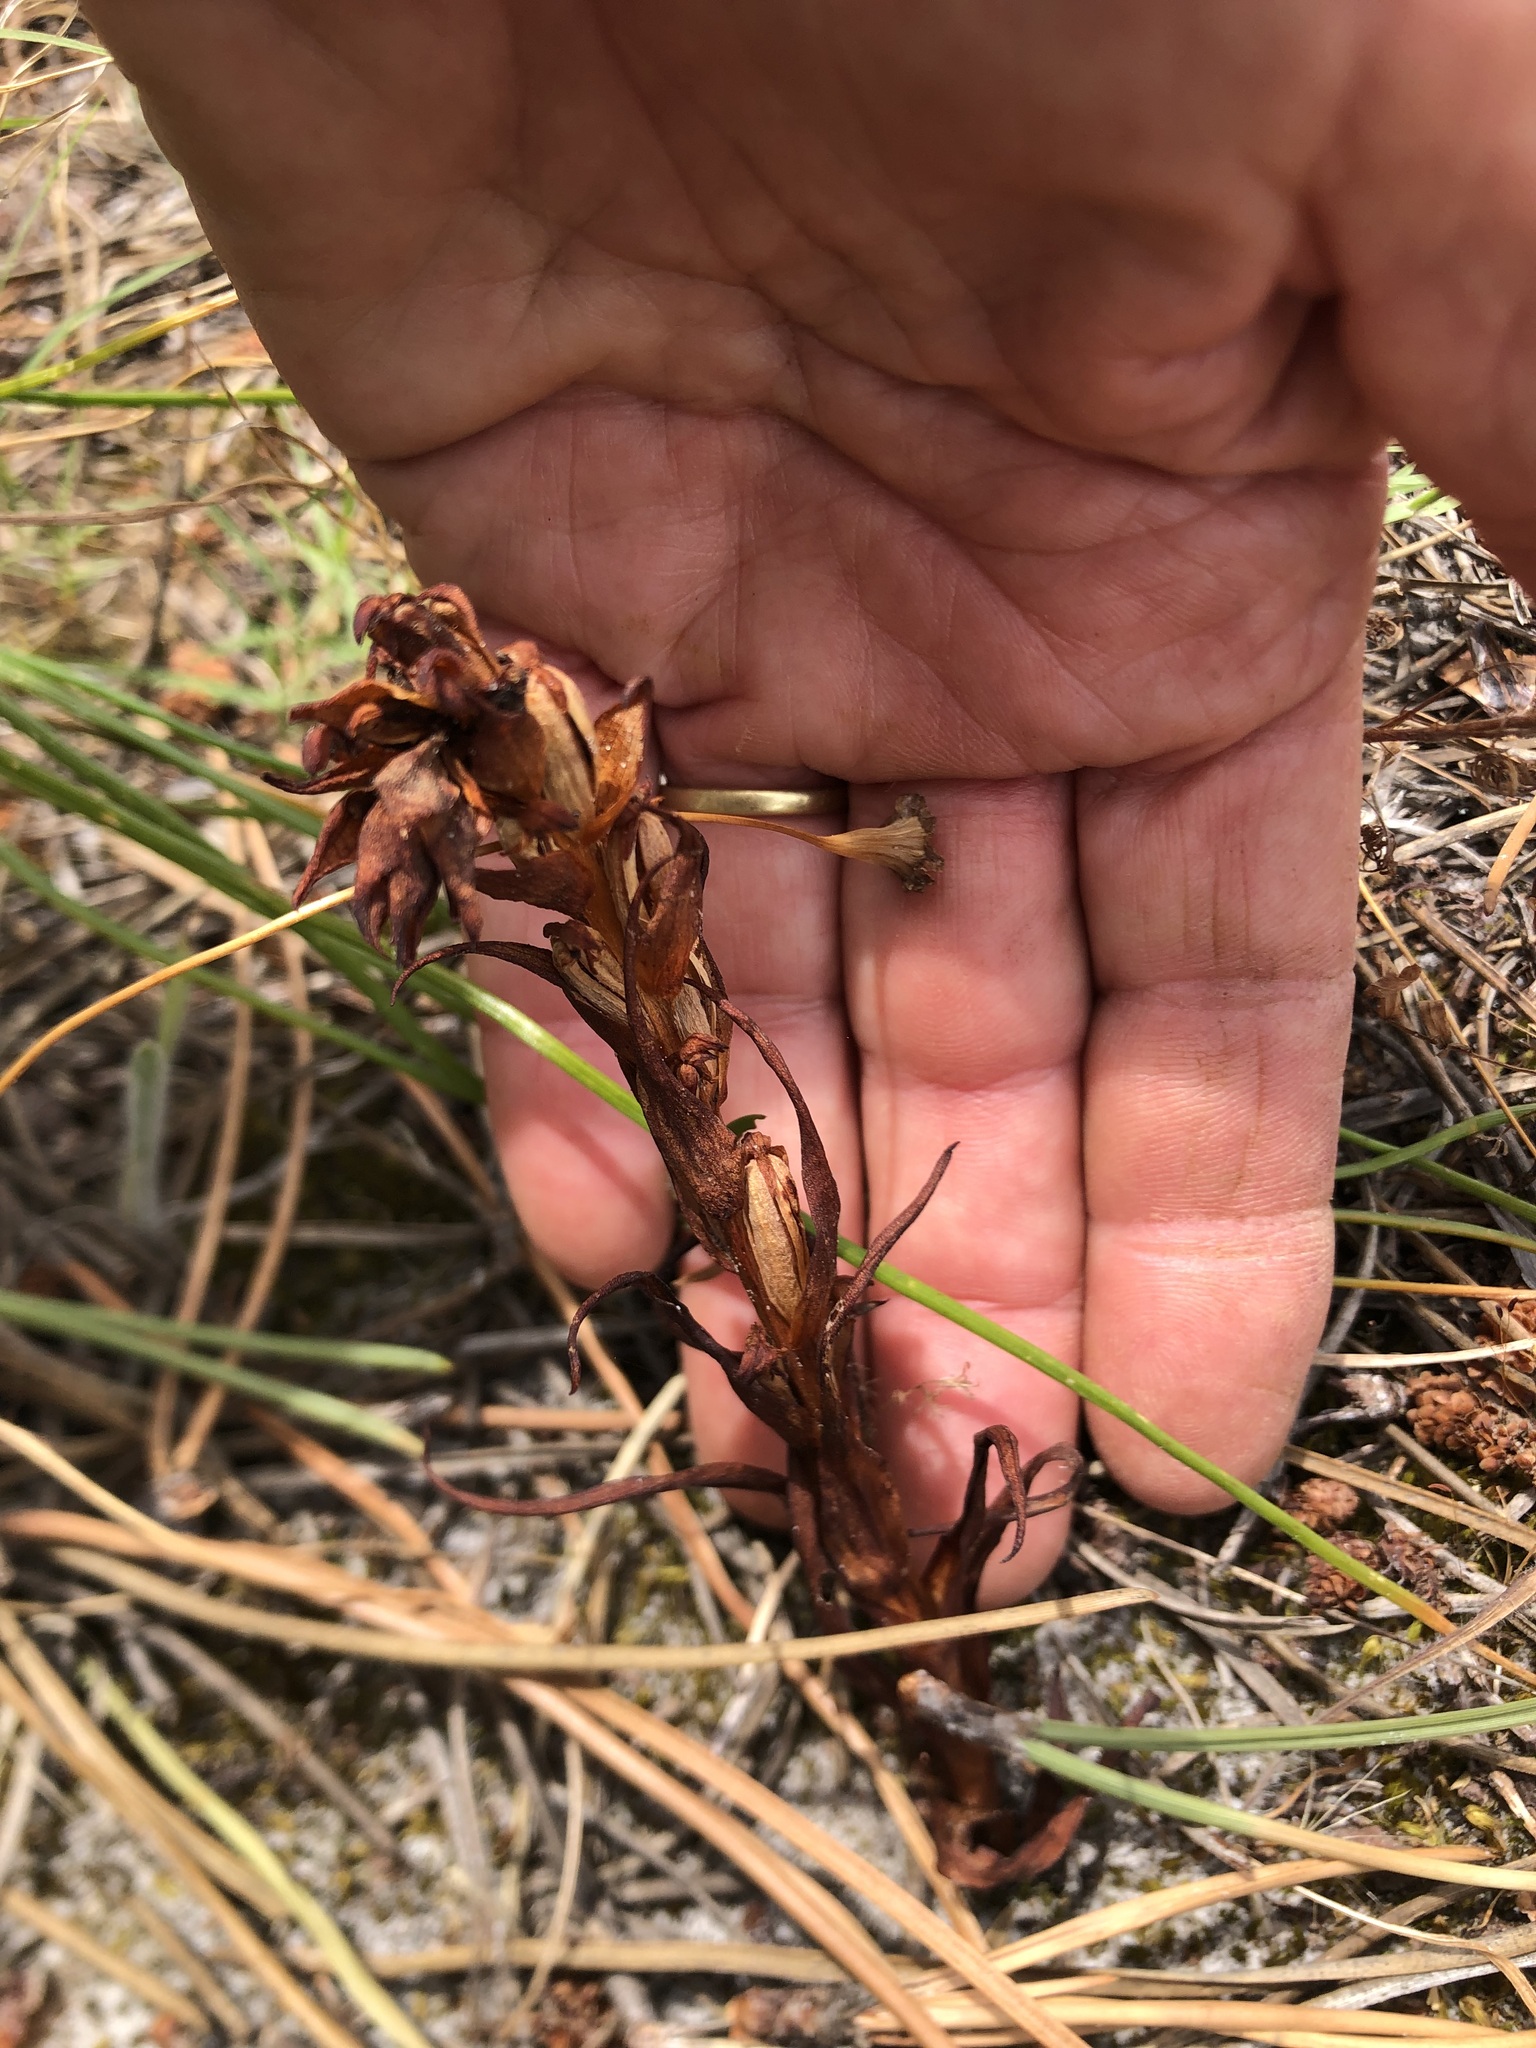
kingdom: Plantae
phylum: Tracheophyta
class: Liliopsida
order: Asparagales
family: Orchidaceae
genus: Disa
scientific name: Disa bracteata
